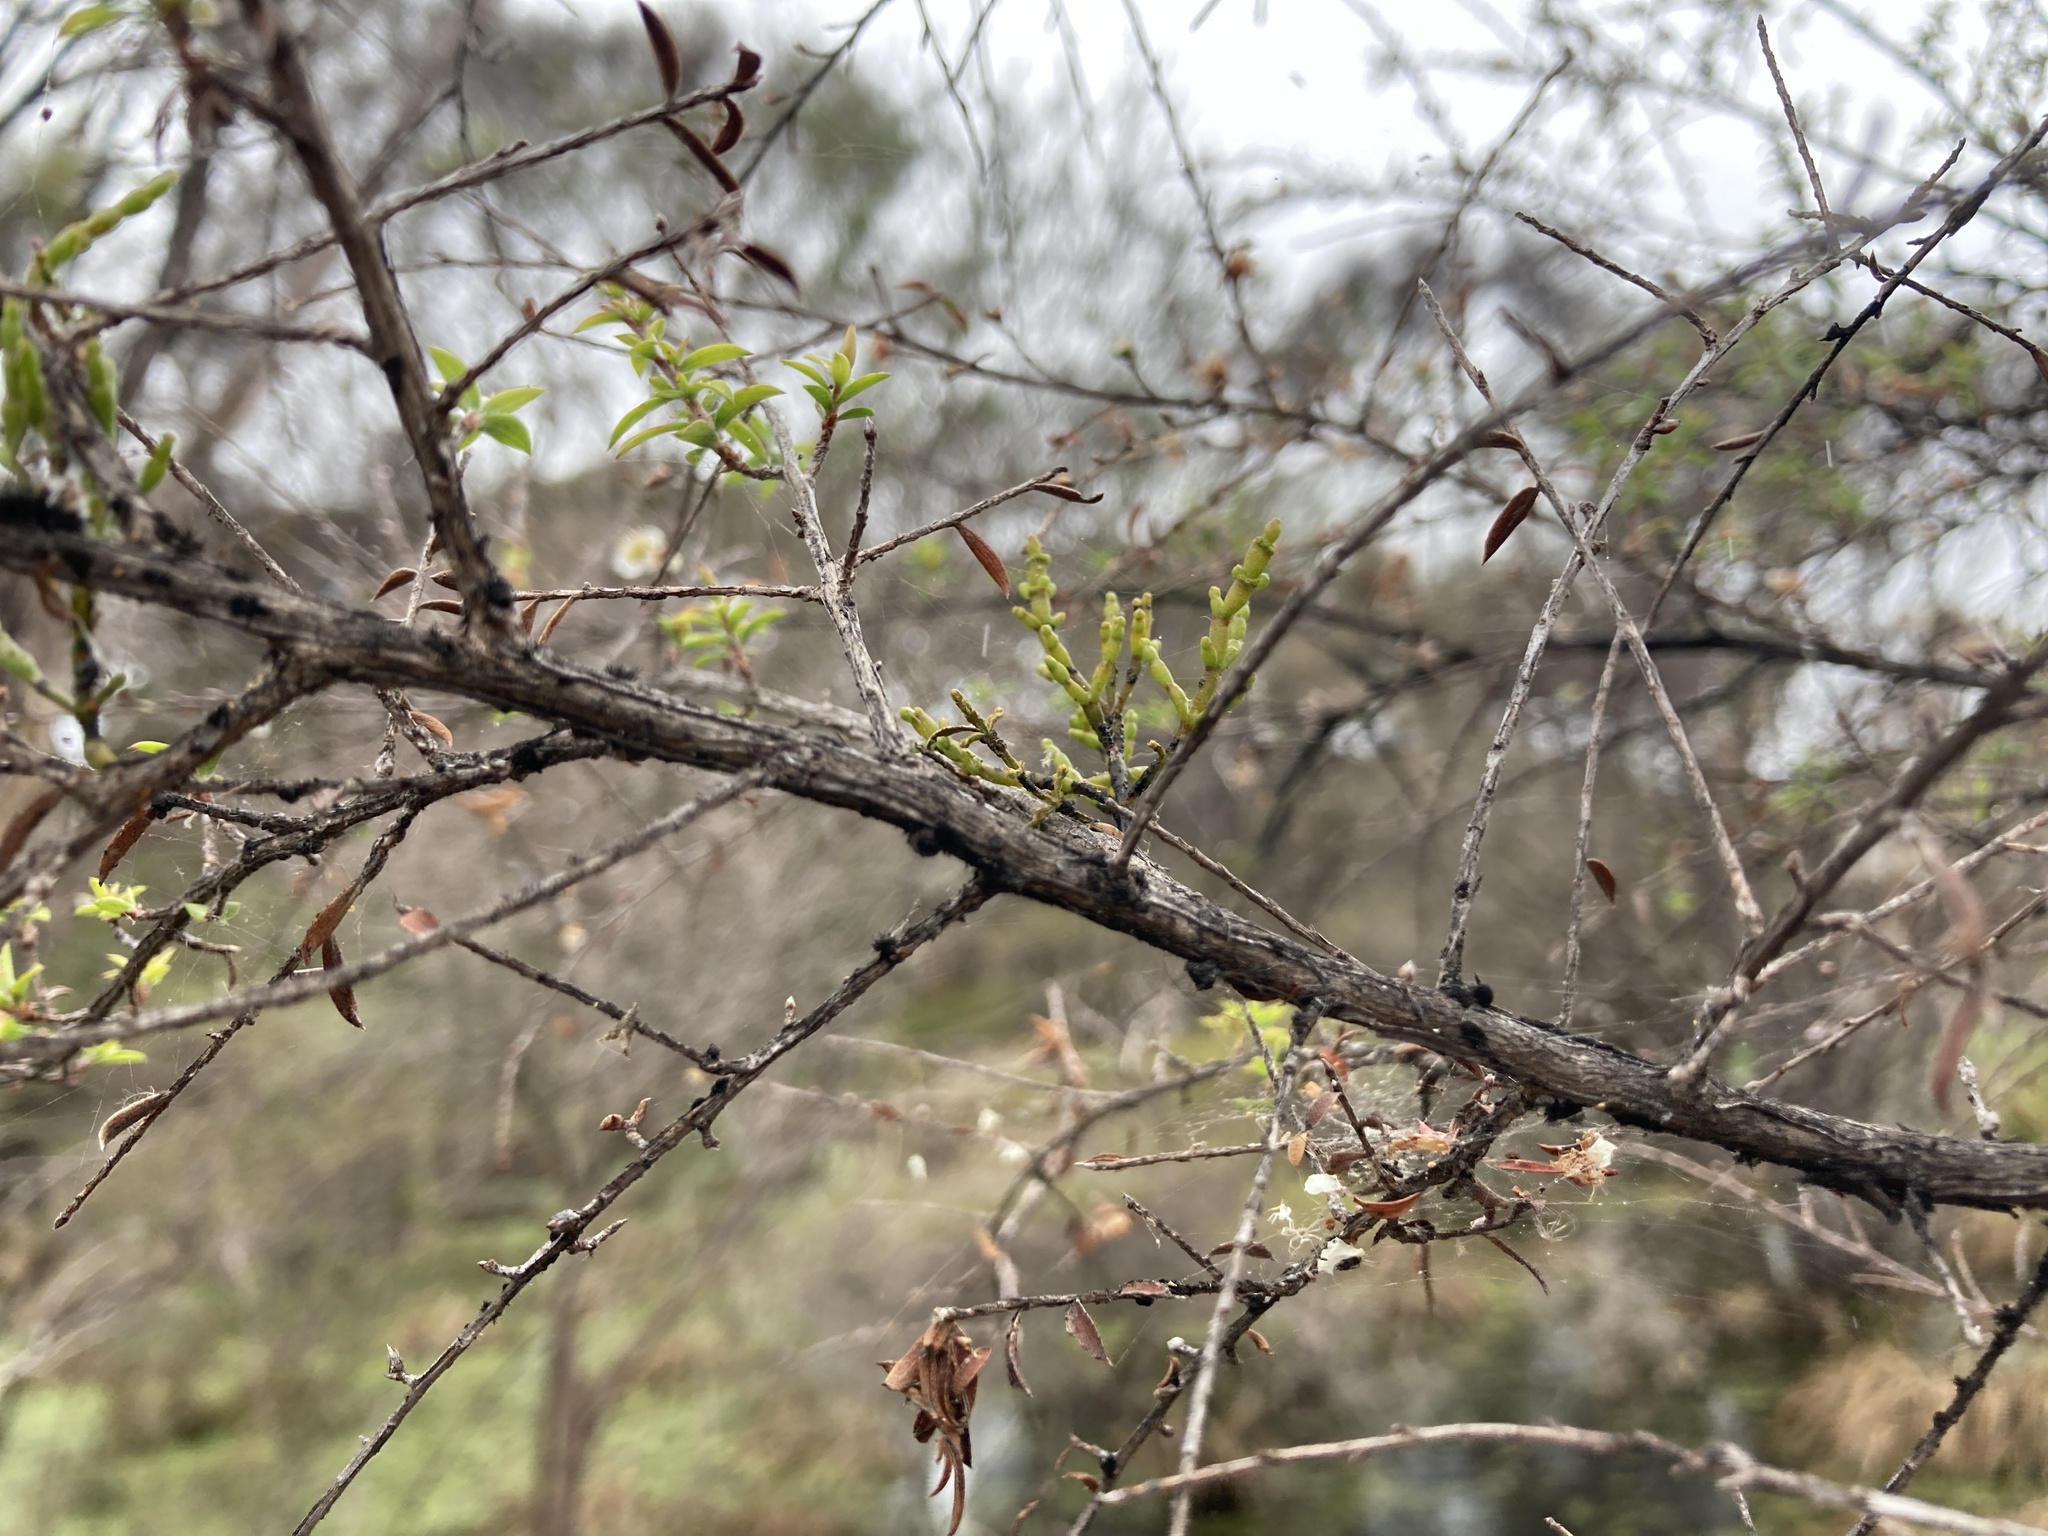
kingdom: Plantae
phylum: Tracheophyta
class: Magnoliopsida
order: Santalales
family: Viscaceae
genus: Korthalsella
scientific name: Korthalsella salicornioides
